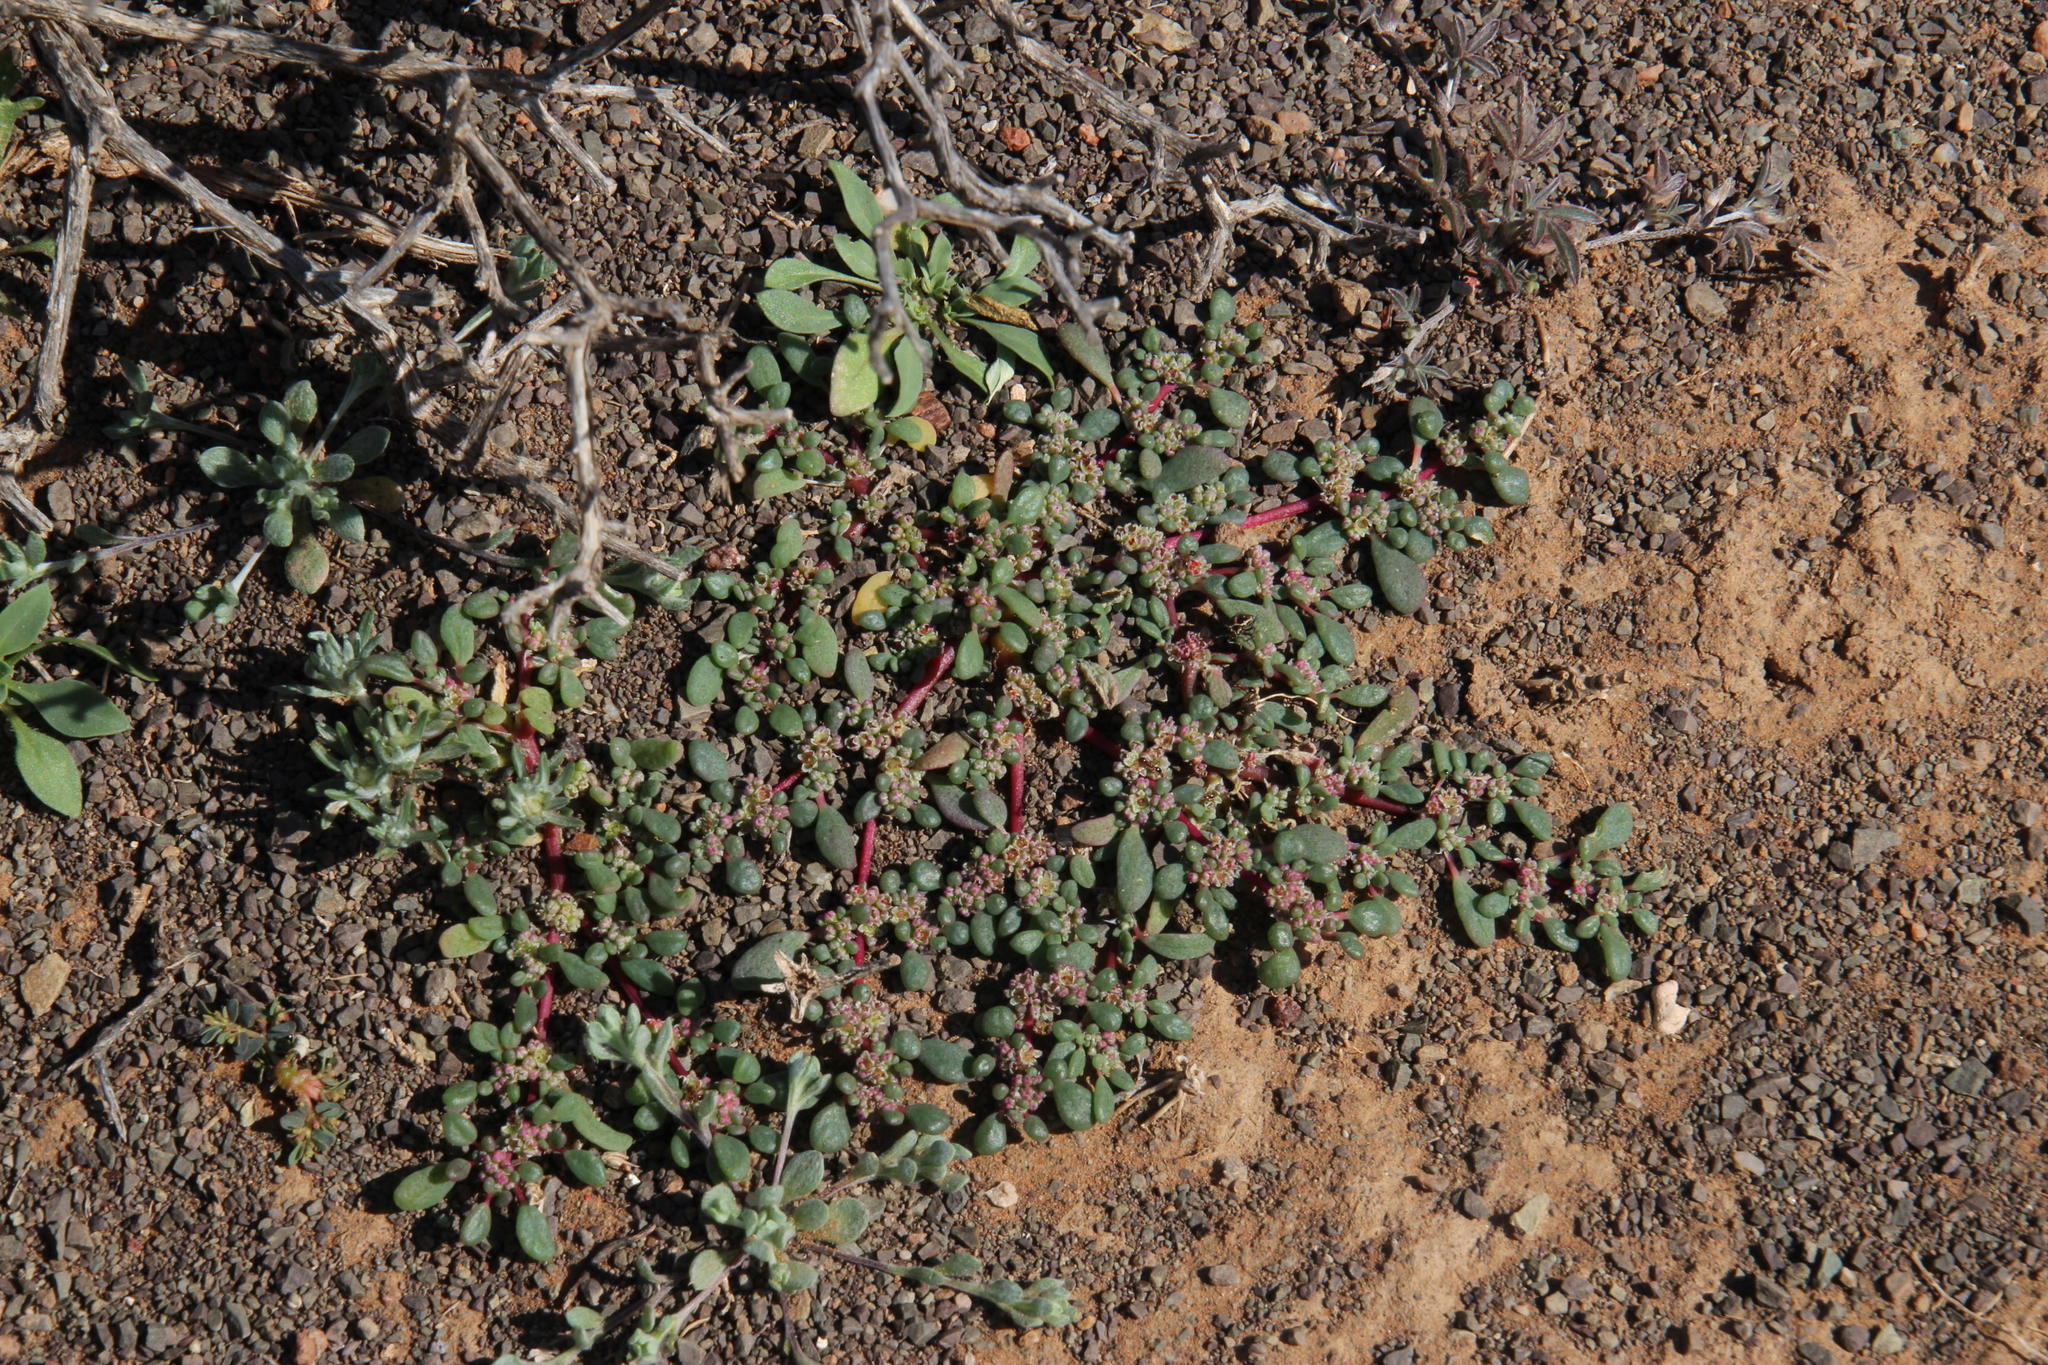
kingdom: Plantae
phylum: Tracheophyta
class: Magnoliopsida
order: Caryophyllales
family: Aizoaceae
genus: Trianthema
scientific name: Trianthema parvifolium
